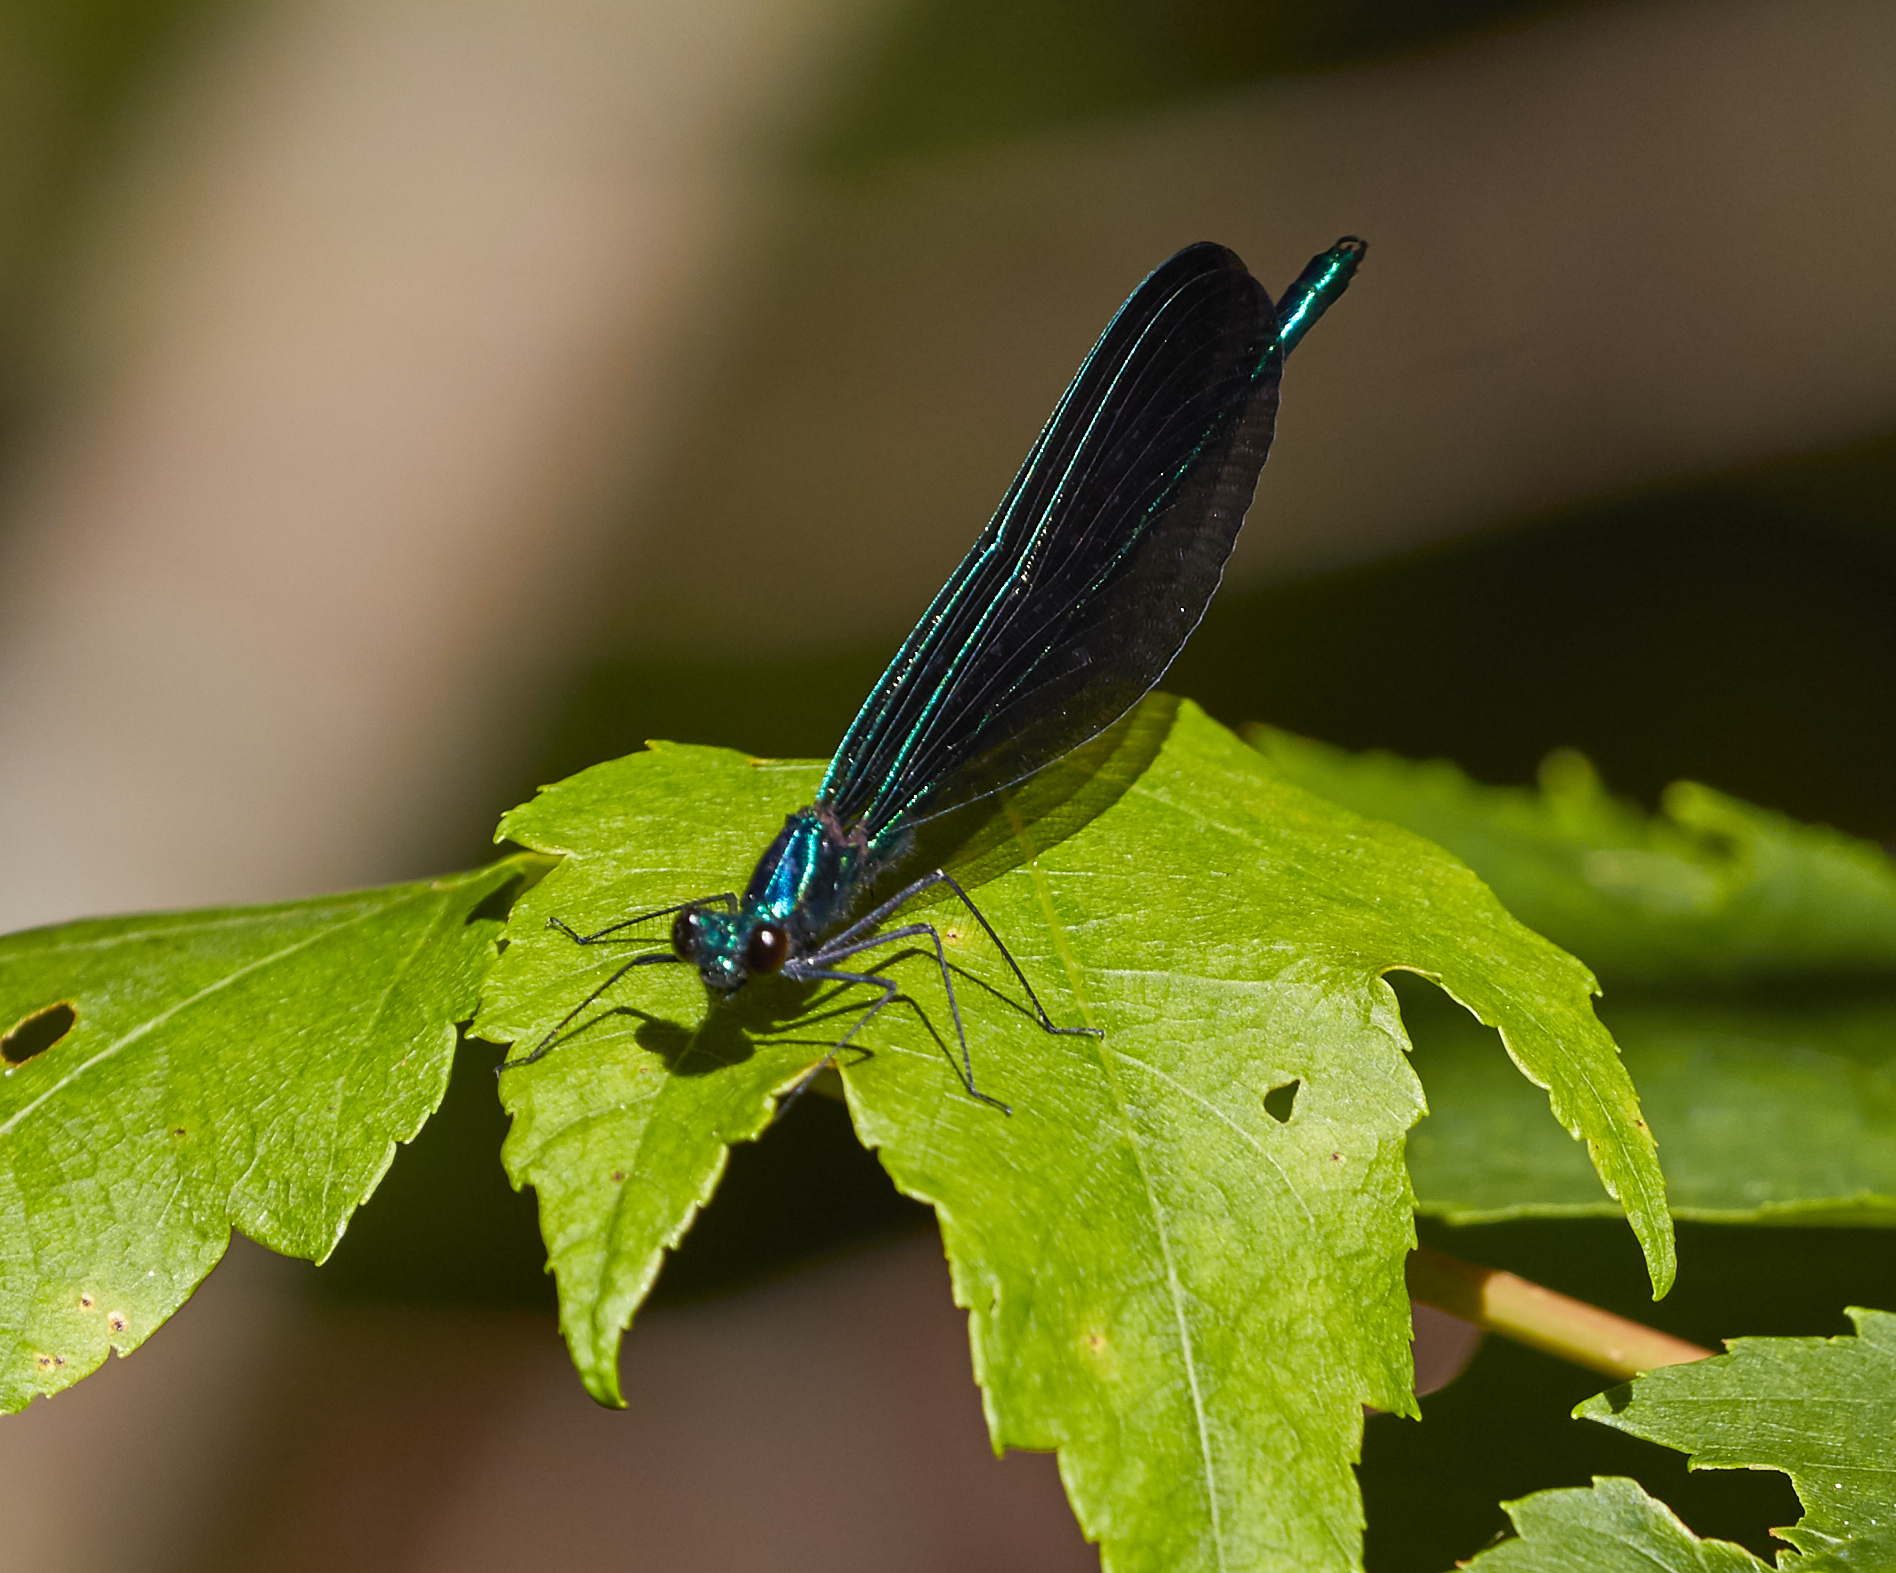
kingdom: Animalia
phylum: Arthropoda
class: Insecta
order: Odonata
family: Calopterygidae
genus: Calopteryx
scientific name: Calopteryx maculata
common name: Ebony jewelwing
